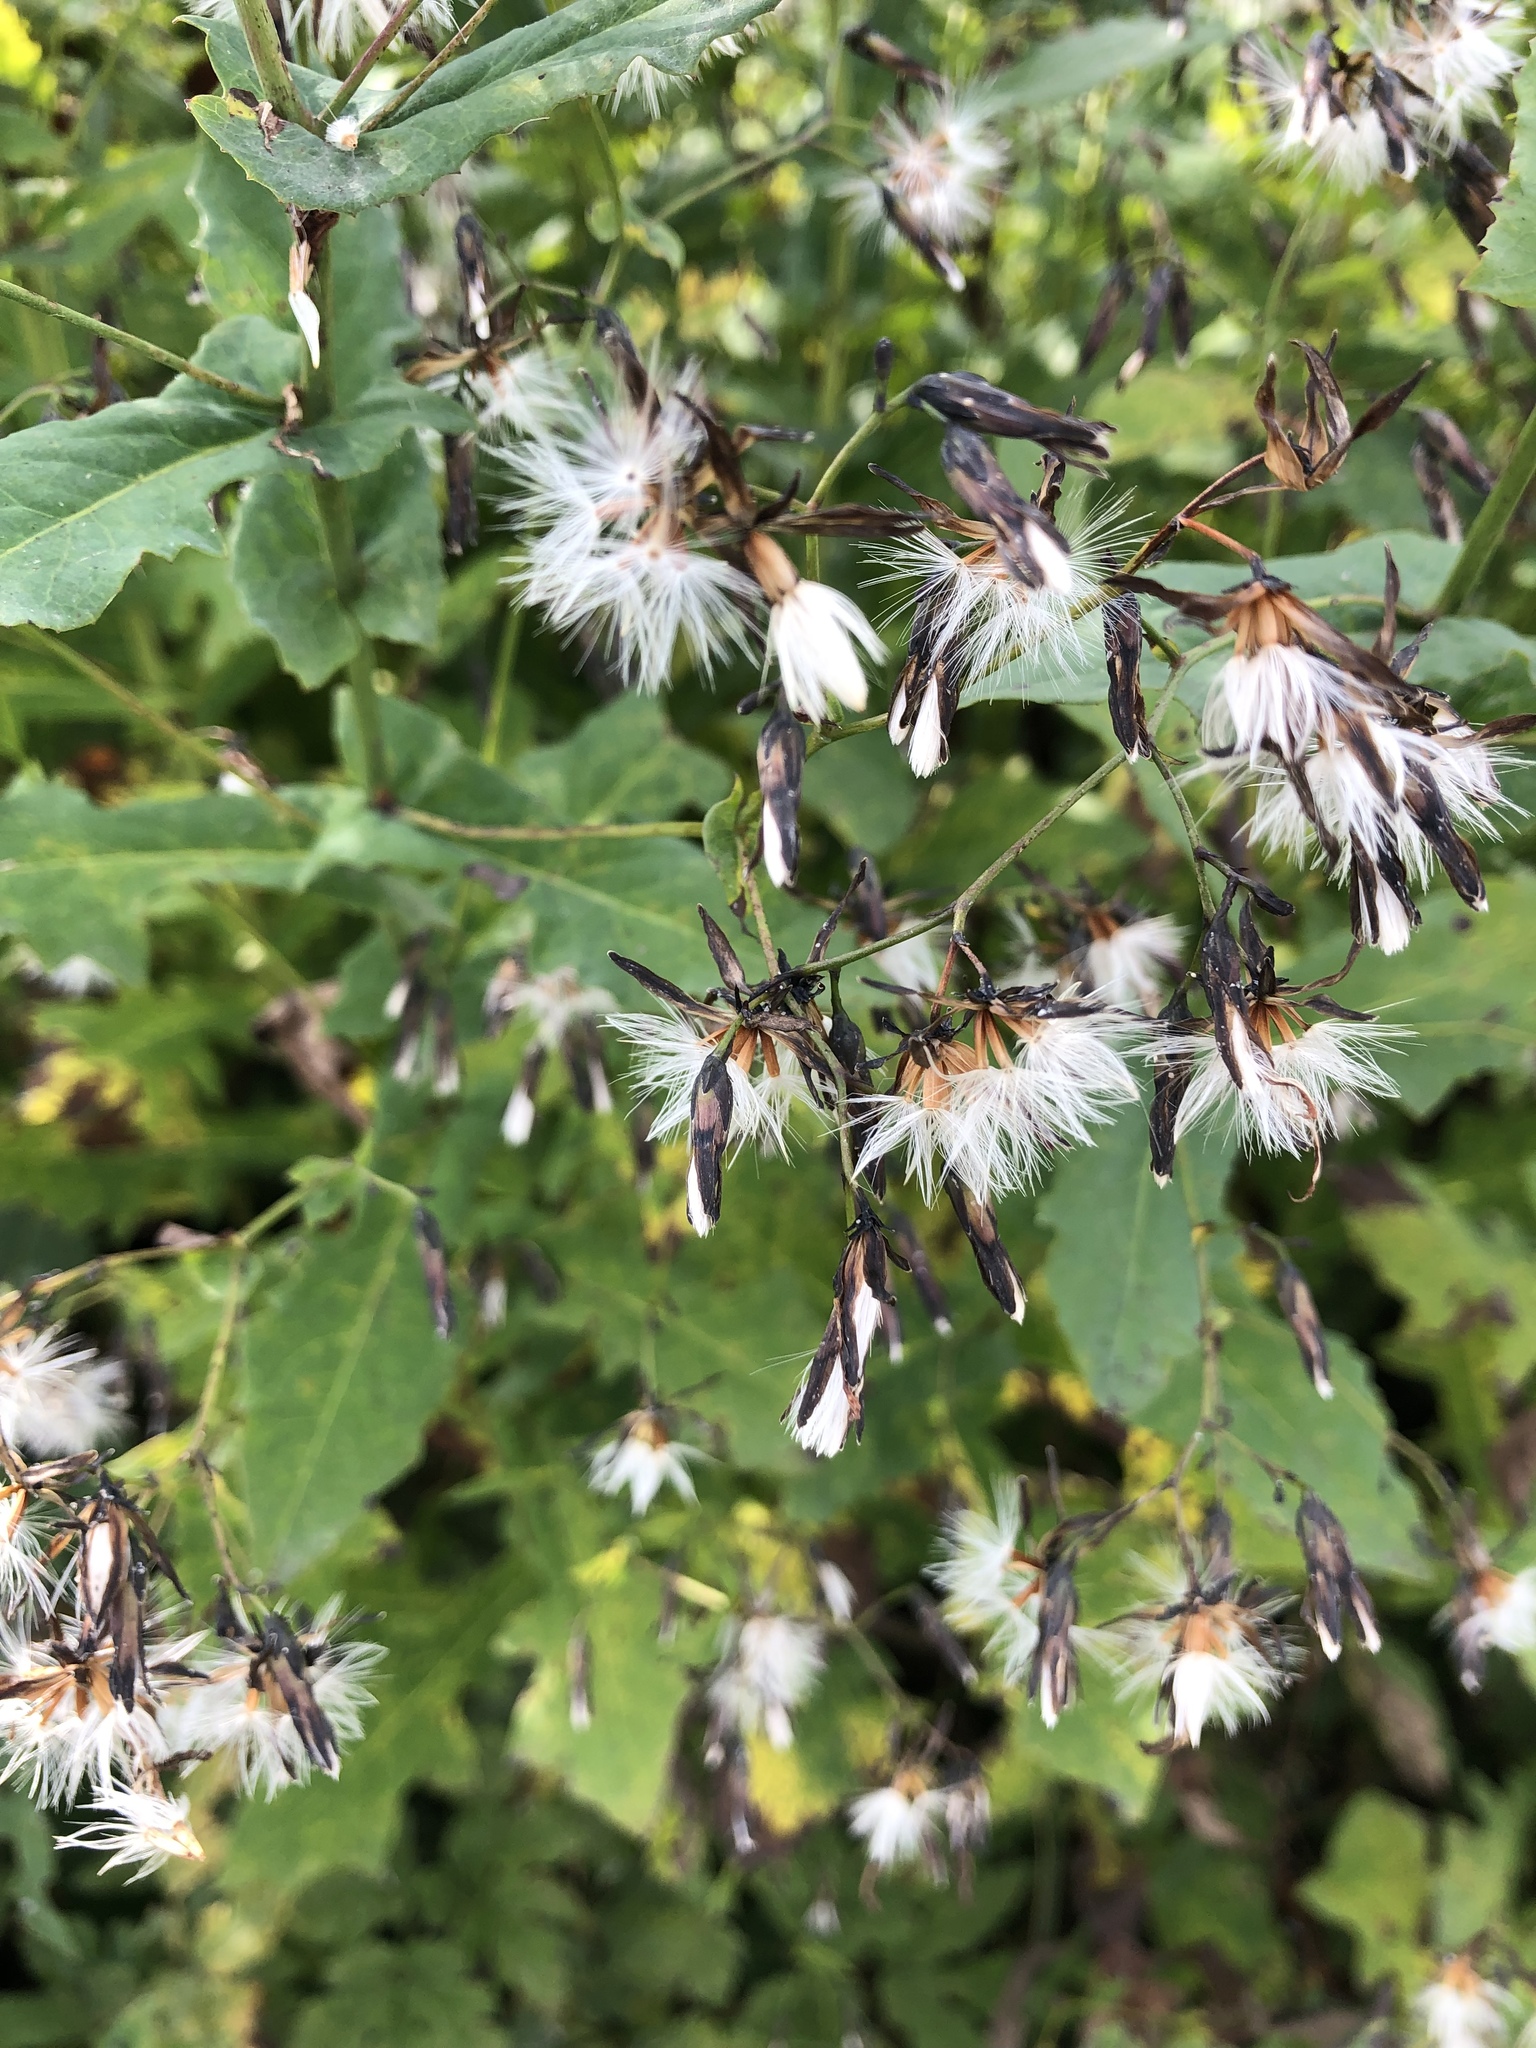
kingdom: Plantae
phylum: Tracheophyta
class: Magnoliopsida
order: Asterales
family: Asteraceae
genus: Prenanthes
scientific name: Prenanthes purpurea
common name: Purple lettuce
